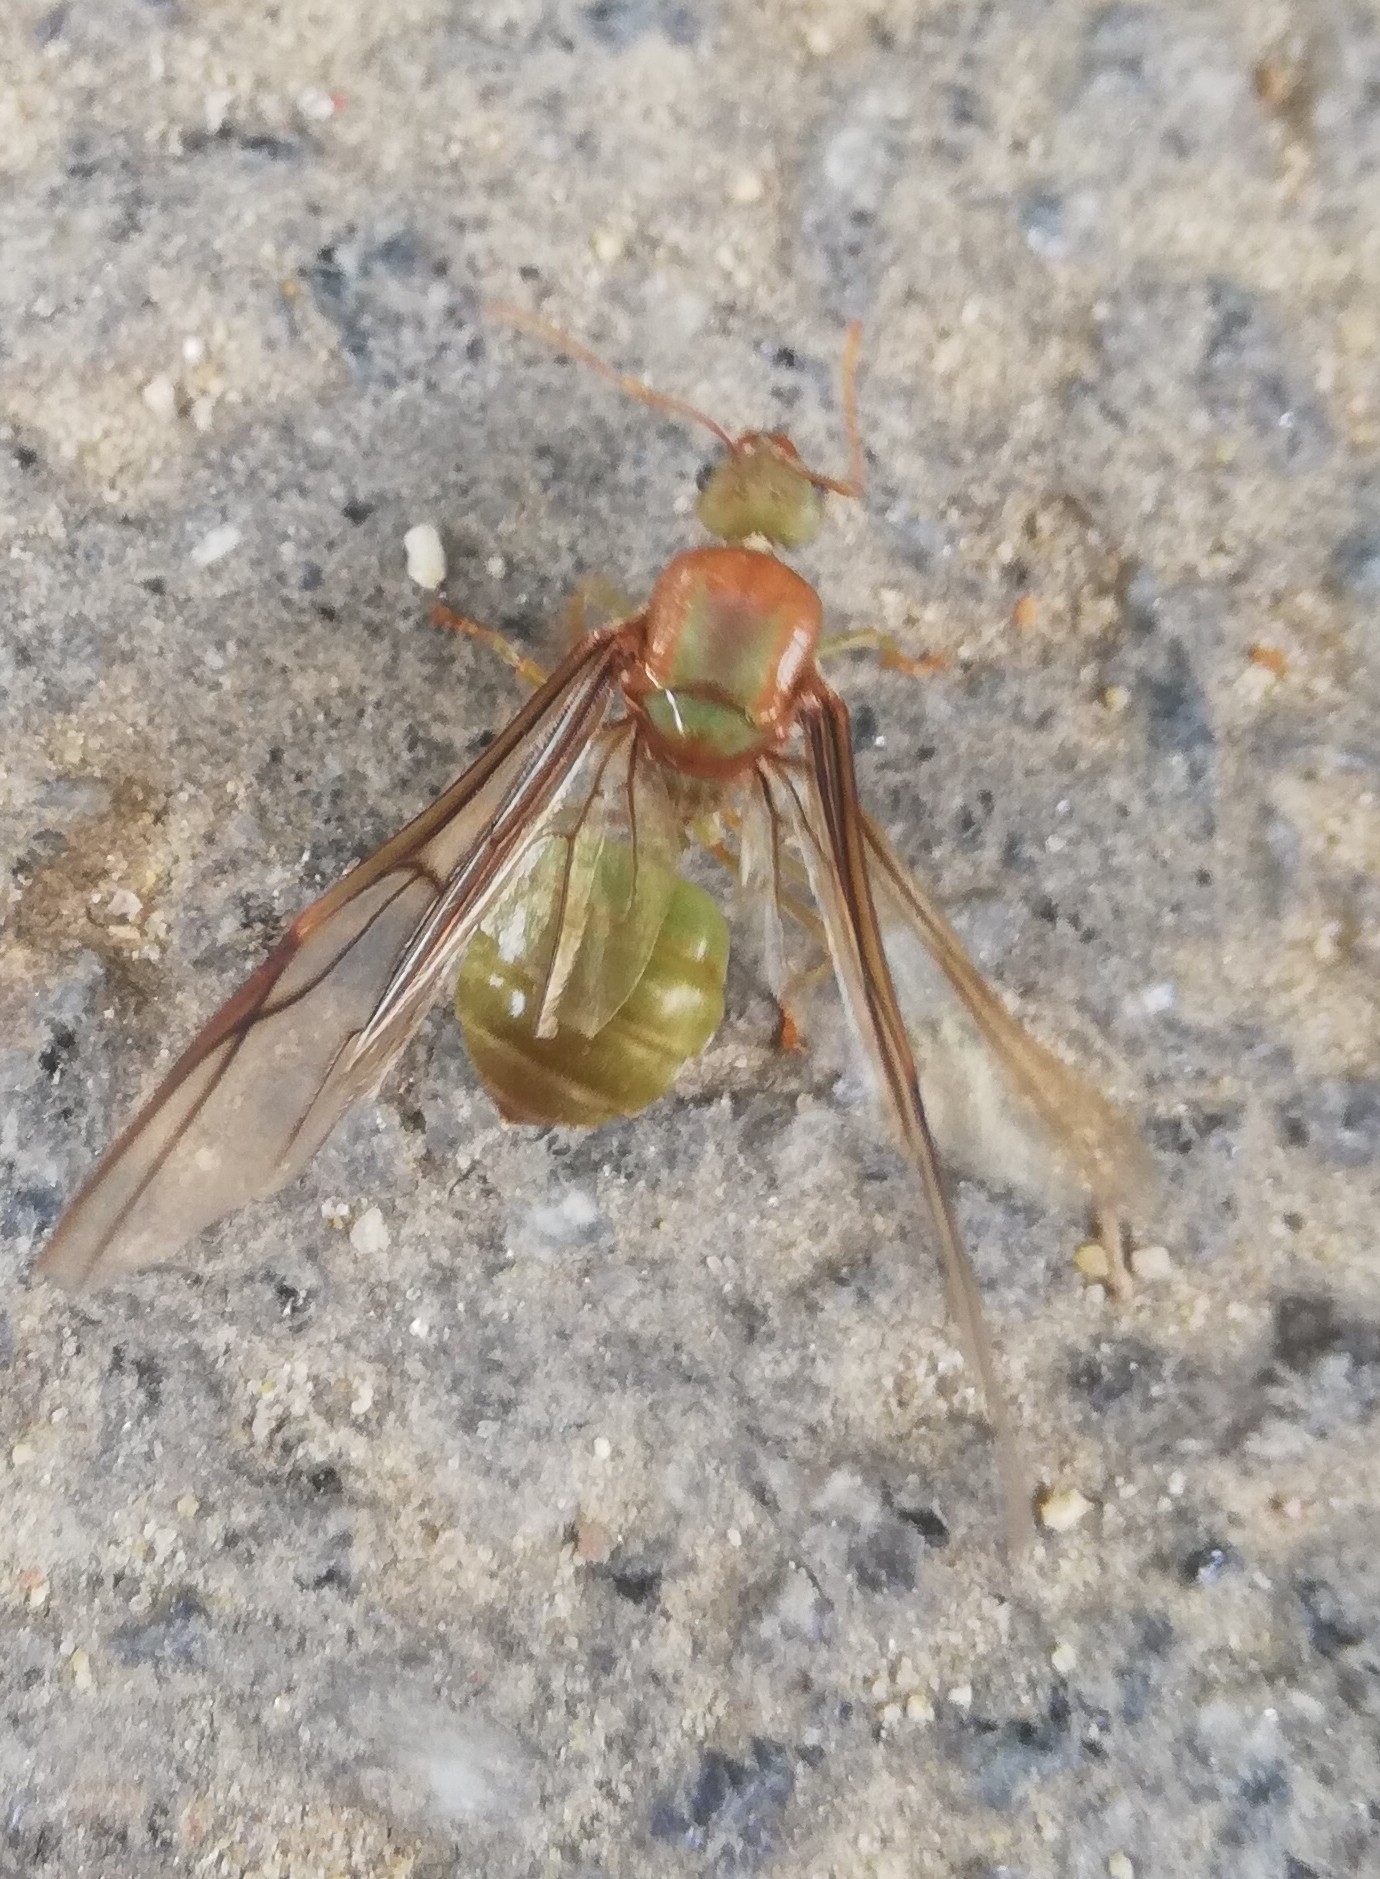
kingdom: Animalia
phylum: Arthropoda
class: Insecta
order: Hymenoptera
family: Formicidae
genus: Oecophylla
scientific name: Oecophylla smaragdina
